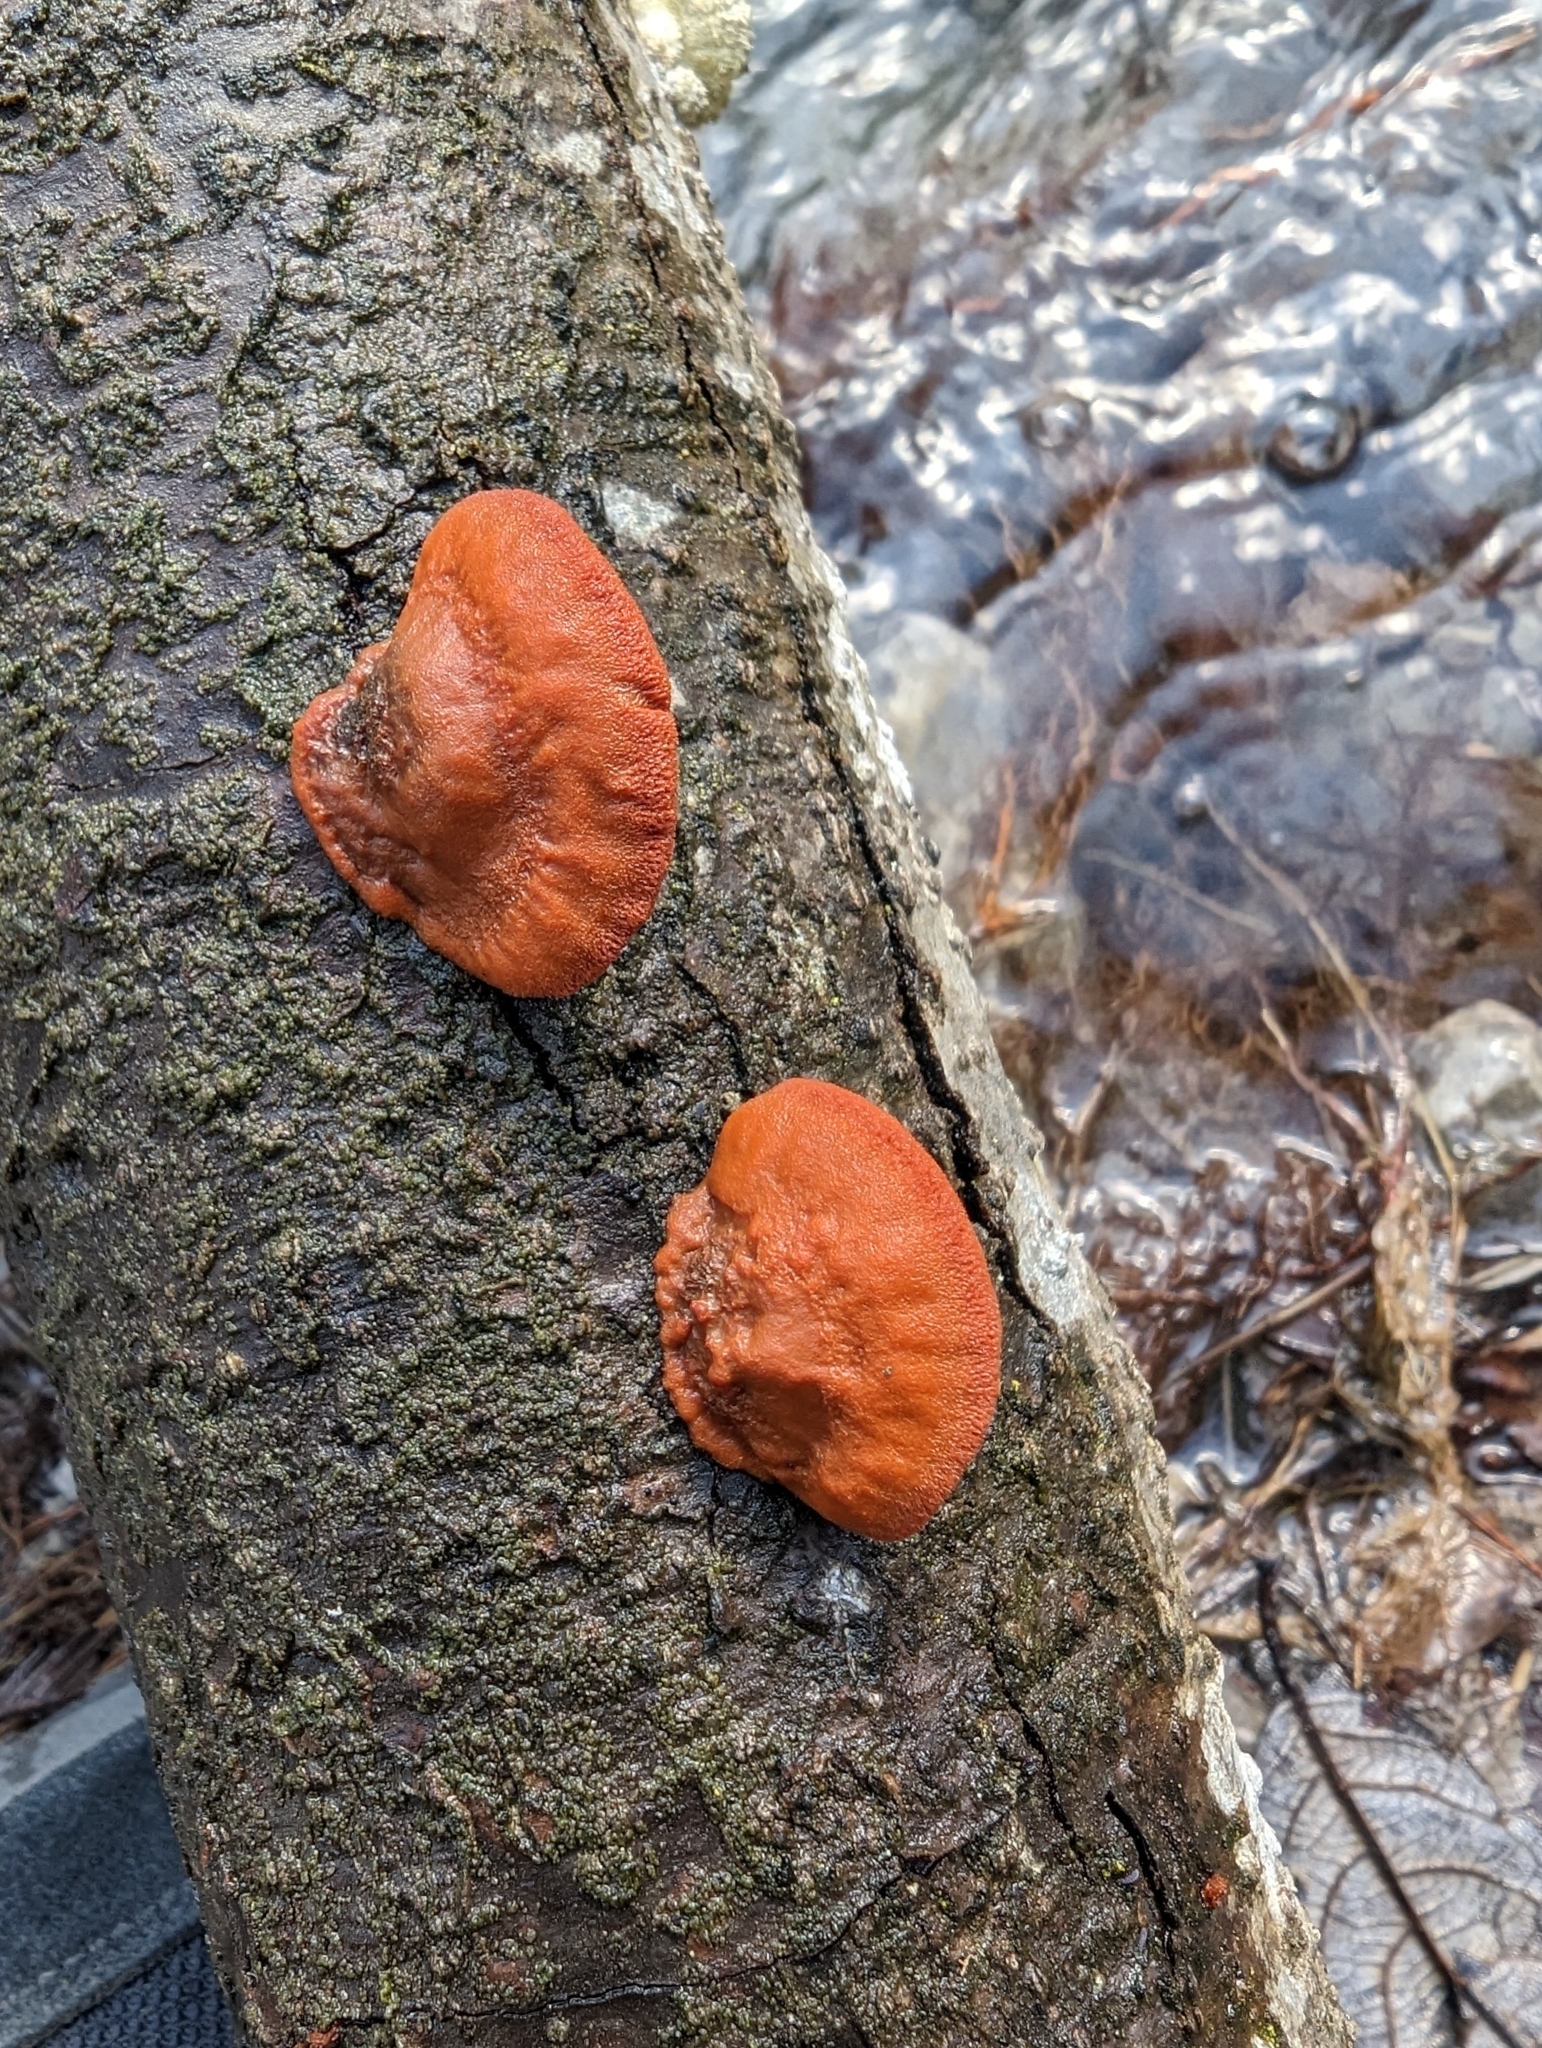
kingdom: Fungi
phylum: Basidiomycota
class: Agaricomycetes
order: Polyporales
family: Polyporaceae
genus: Trametes
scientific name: Trametes cinnabarina
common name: Northern cinnabar polypore
